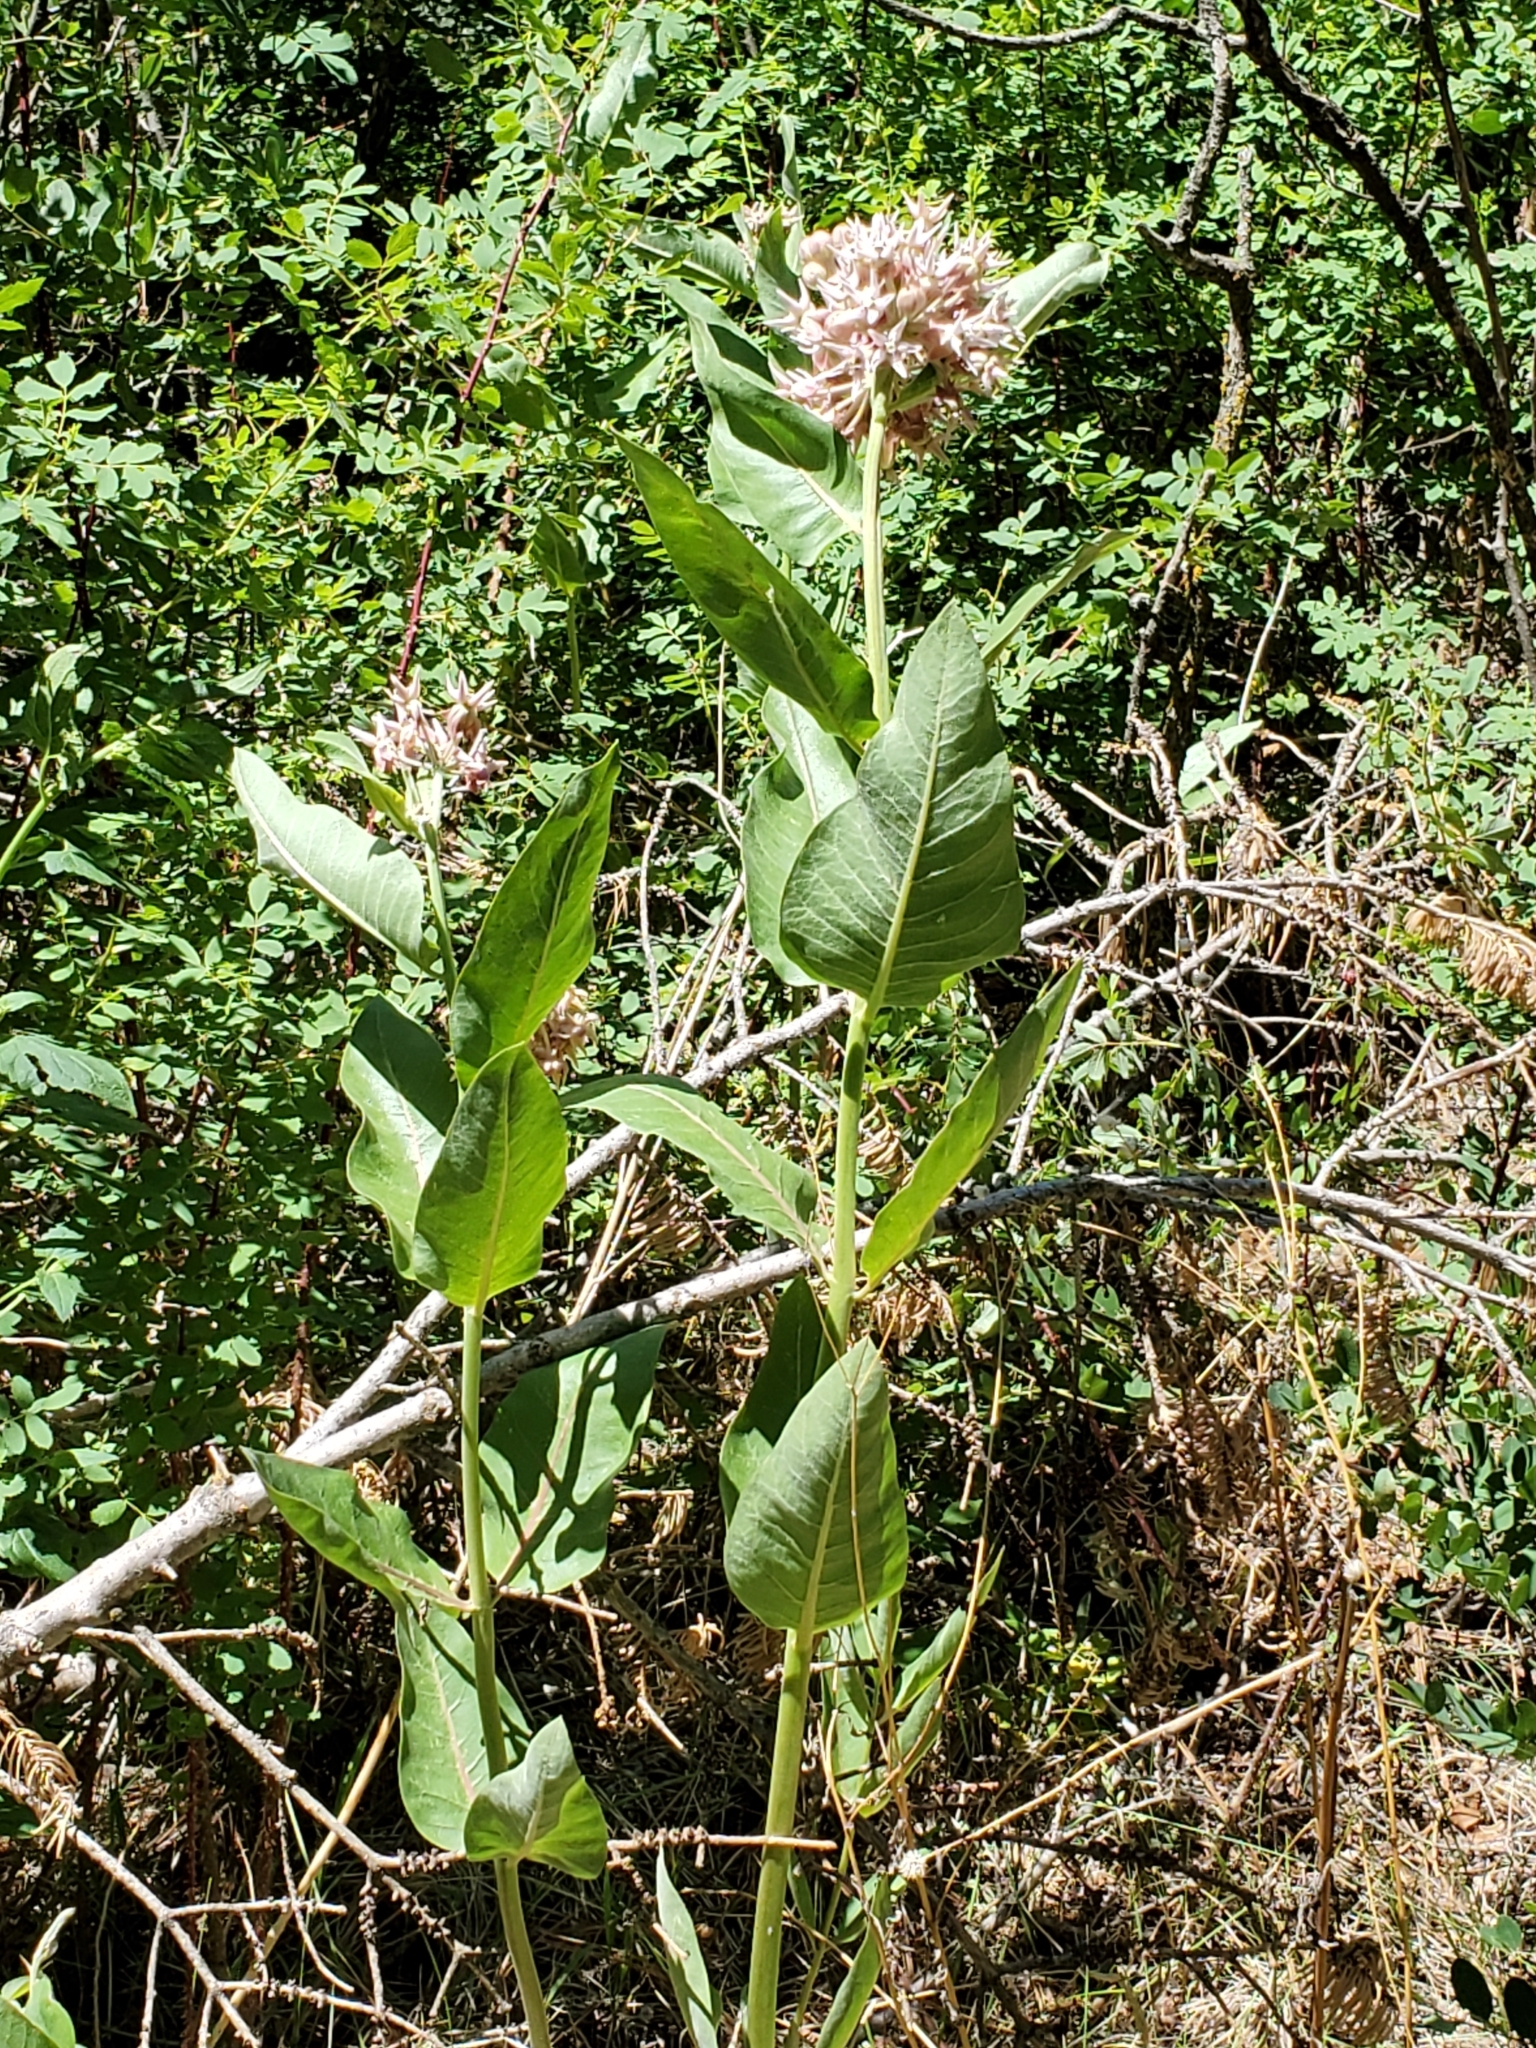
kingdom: Plantae
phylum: Tracheophyta
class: Magnoliopsida
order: Gentianales
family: Apocynaceae
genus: Asclepias
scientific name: Asclepias speciosa
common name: Showy milkweed
